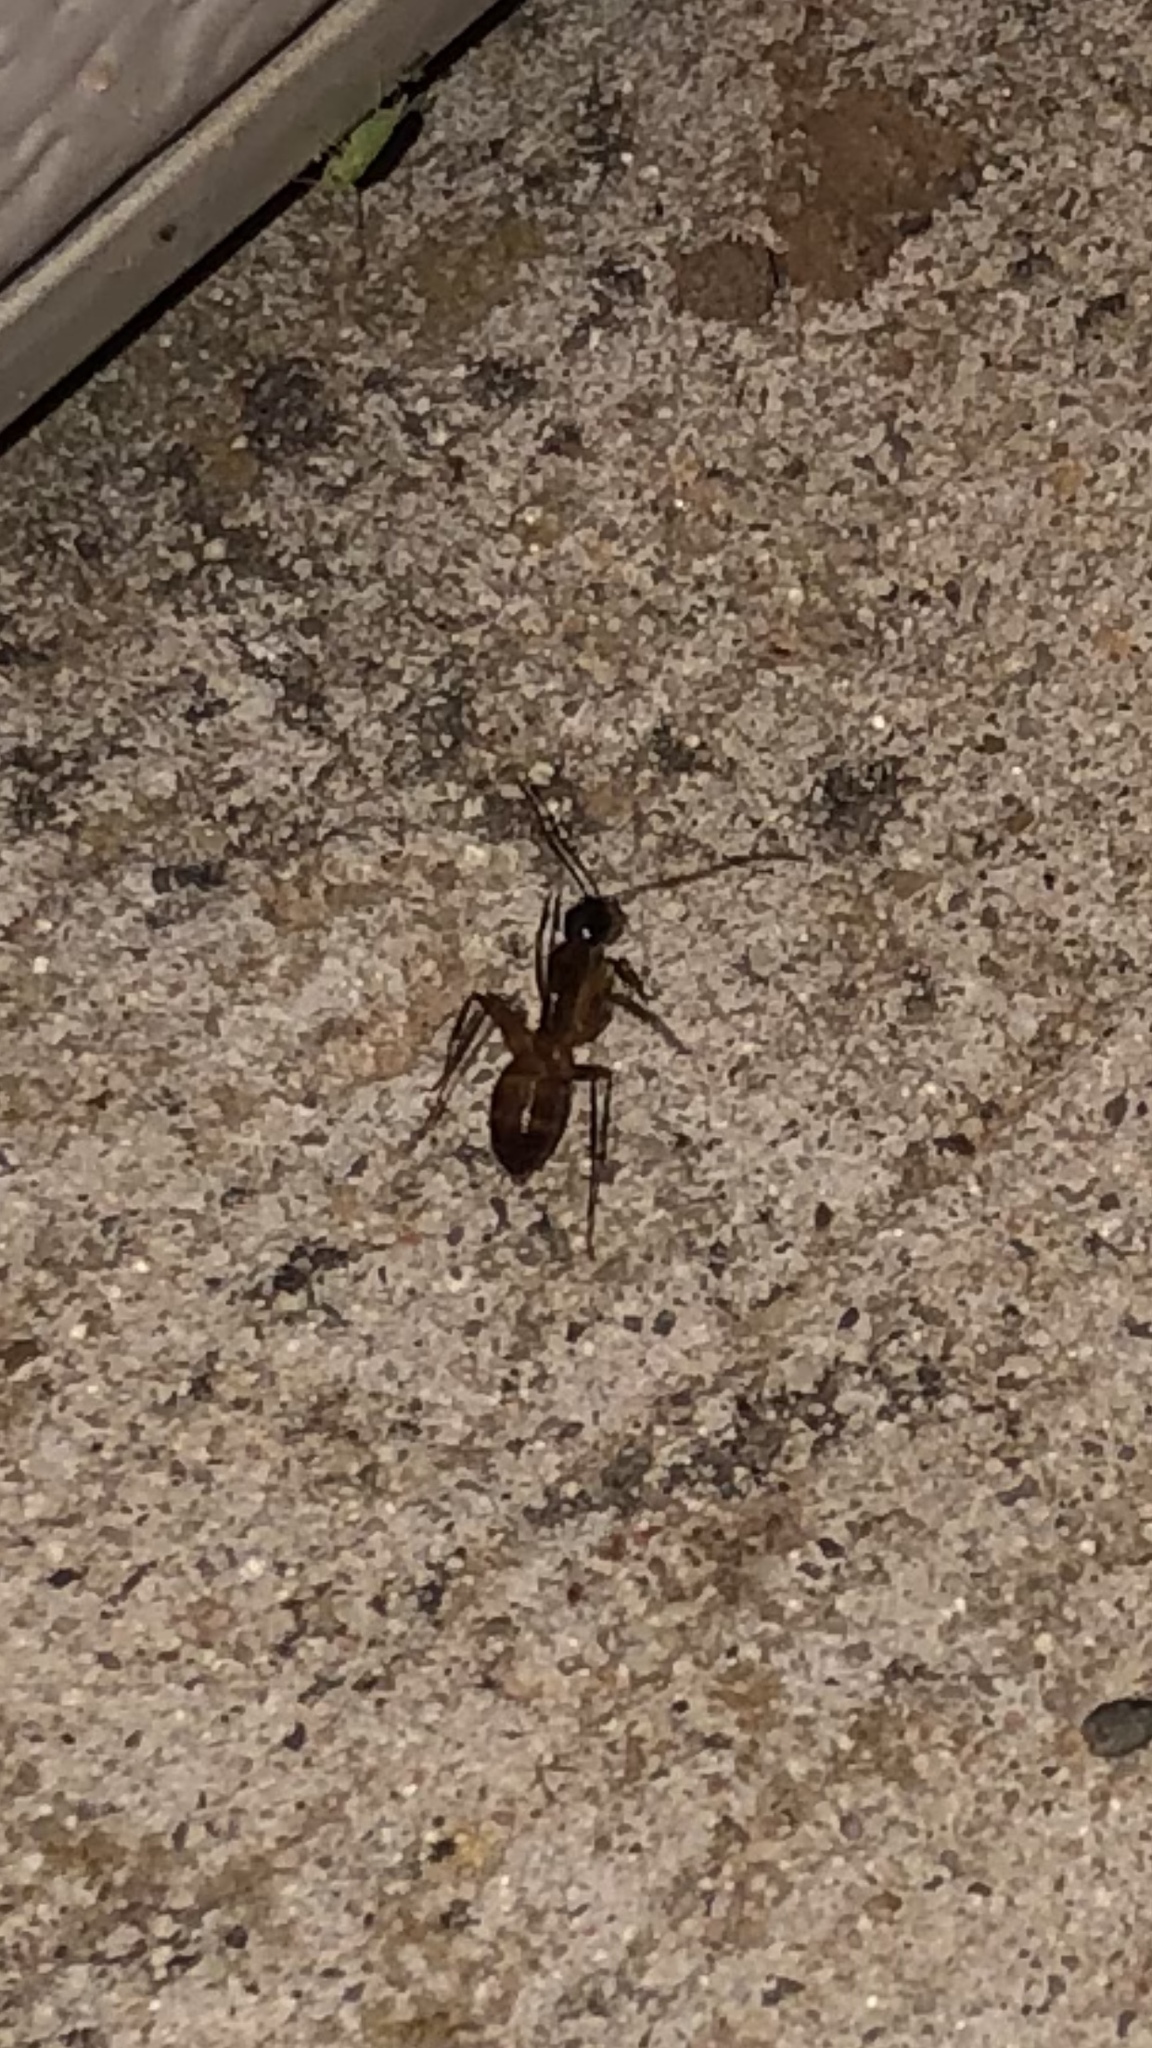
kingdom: Animalia
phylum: Arthropoda
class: Insecta
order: Hymenoptera
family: Formicidae
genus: Camponotus
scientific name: Camponotus americanus
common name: American carpenter ant
